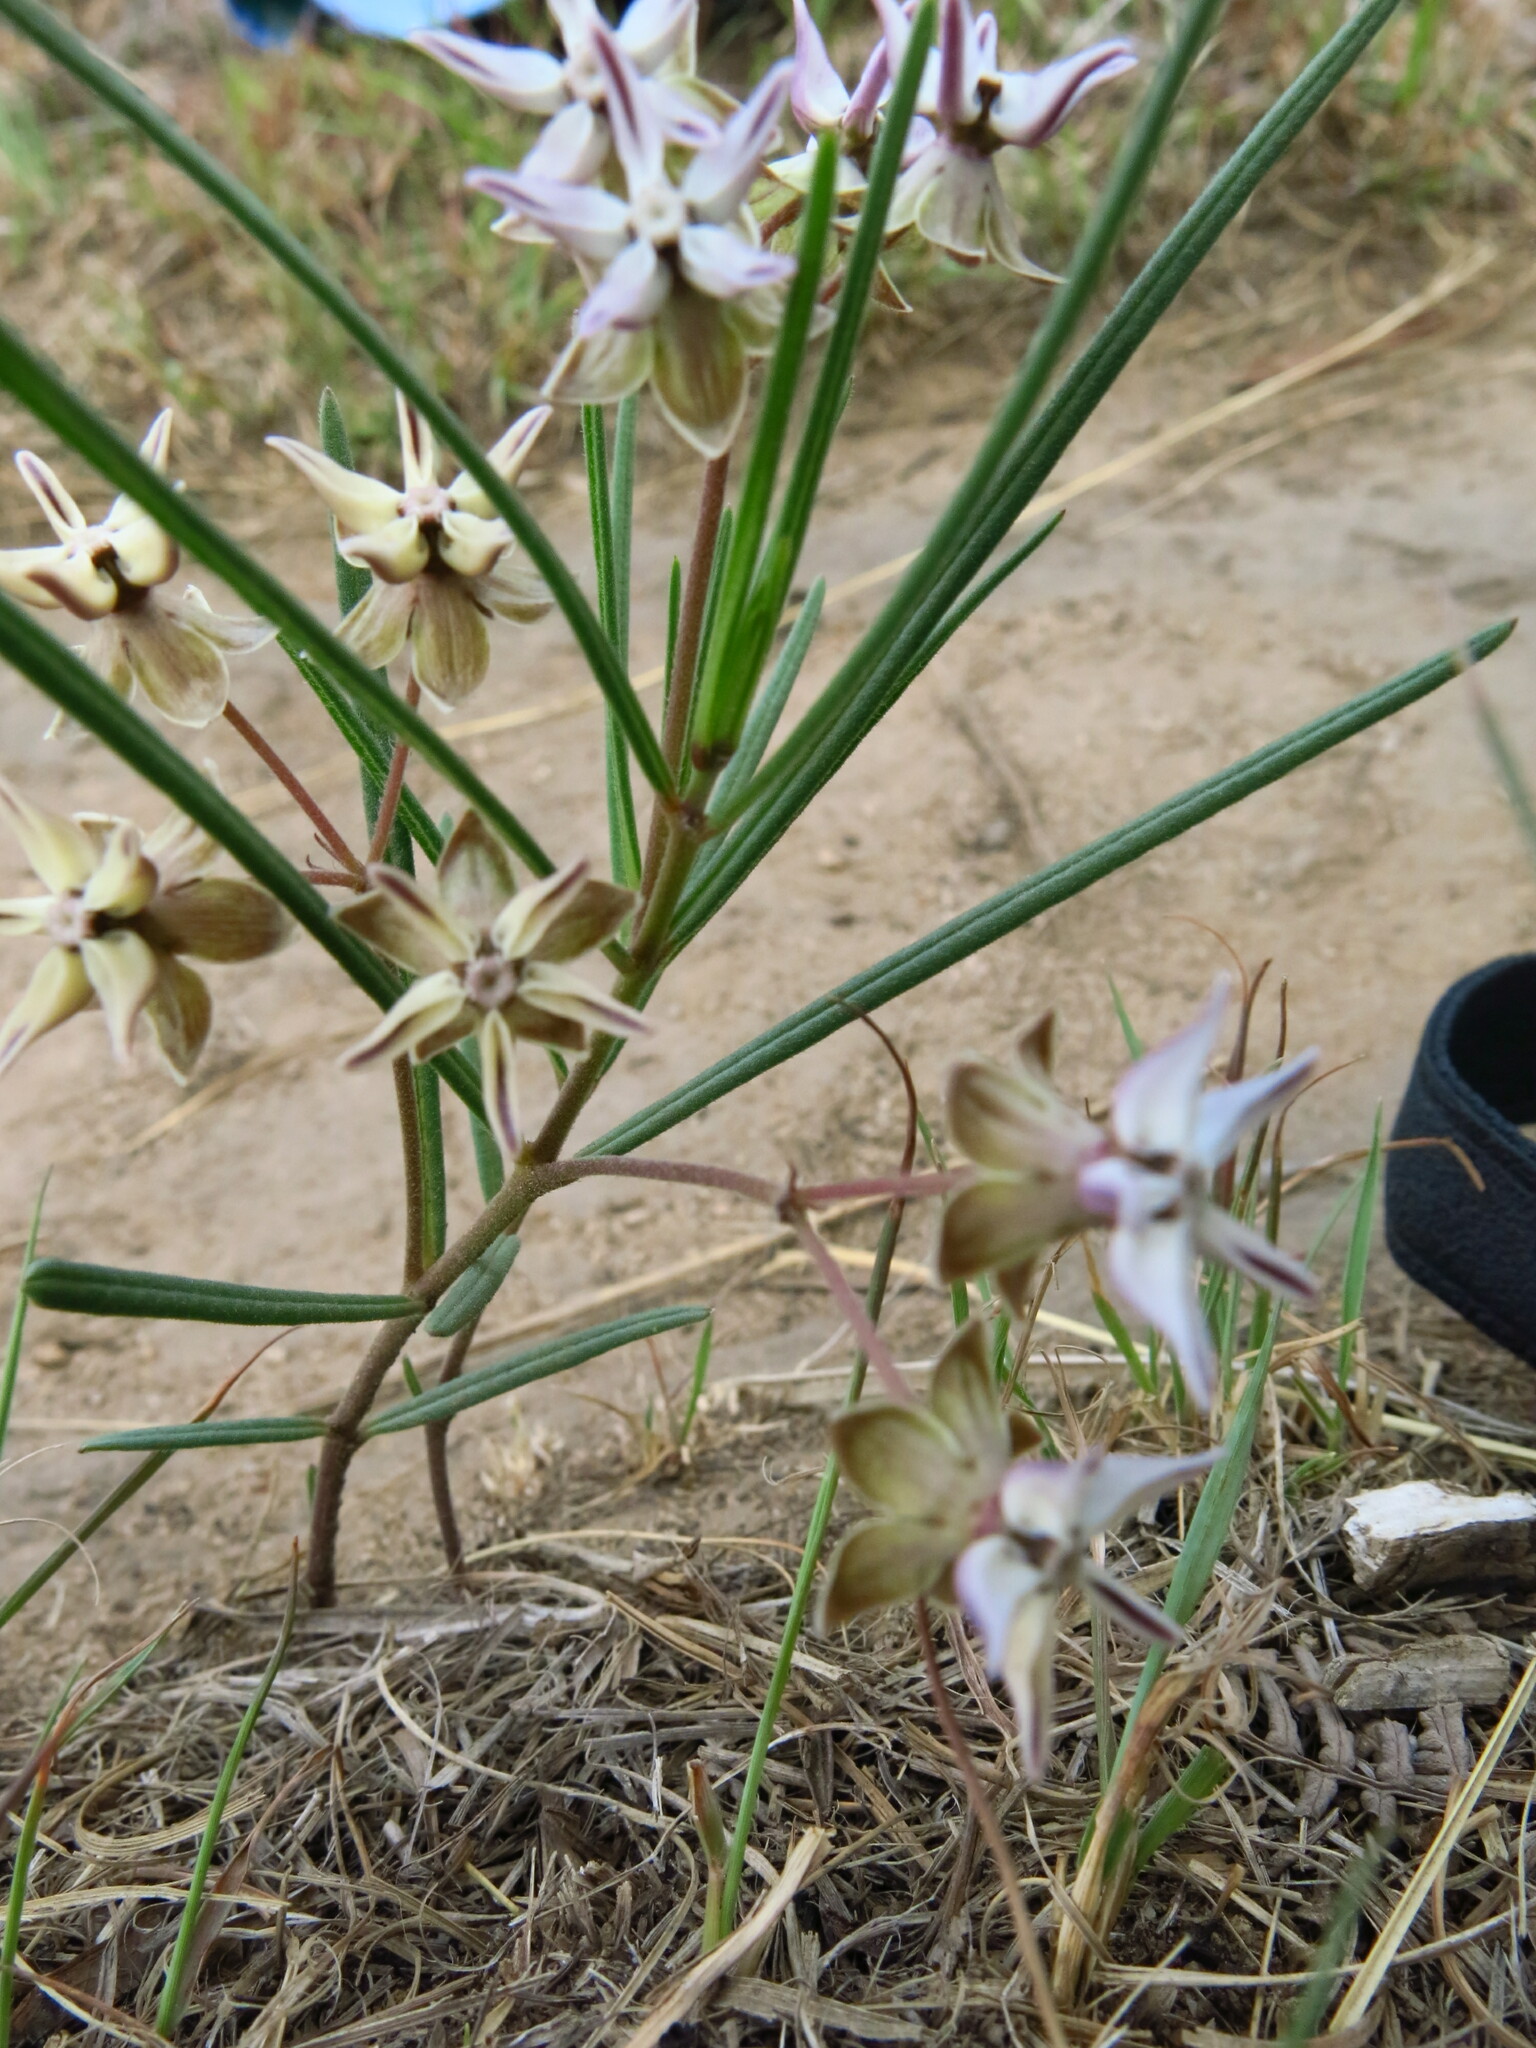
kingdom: Plantae
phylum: Tracheophyta
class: Magnoliopsida
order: Gentianales
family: Apocynaceae
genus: Asclepias
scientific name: Asclepias stellifera
